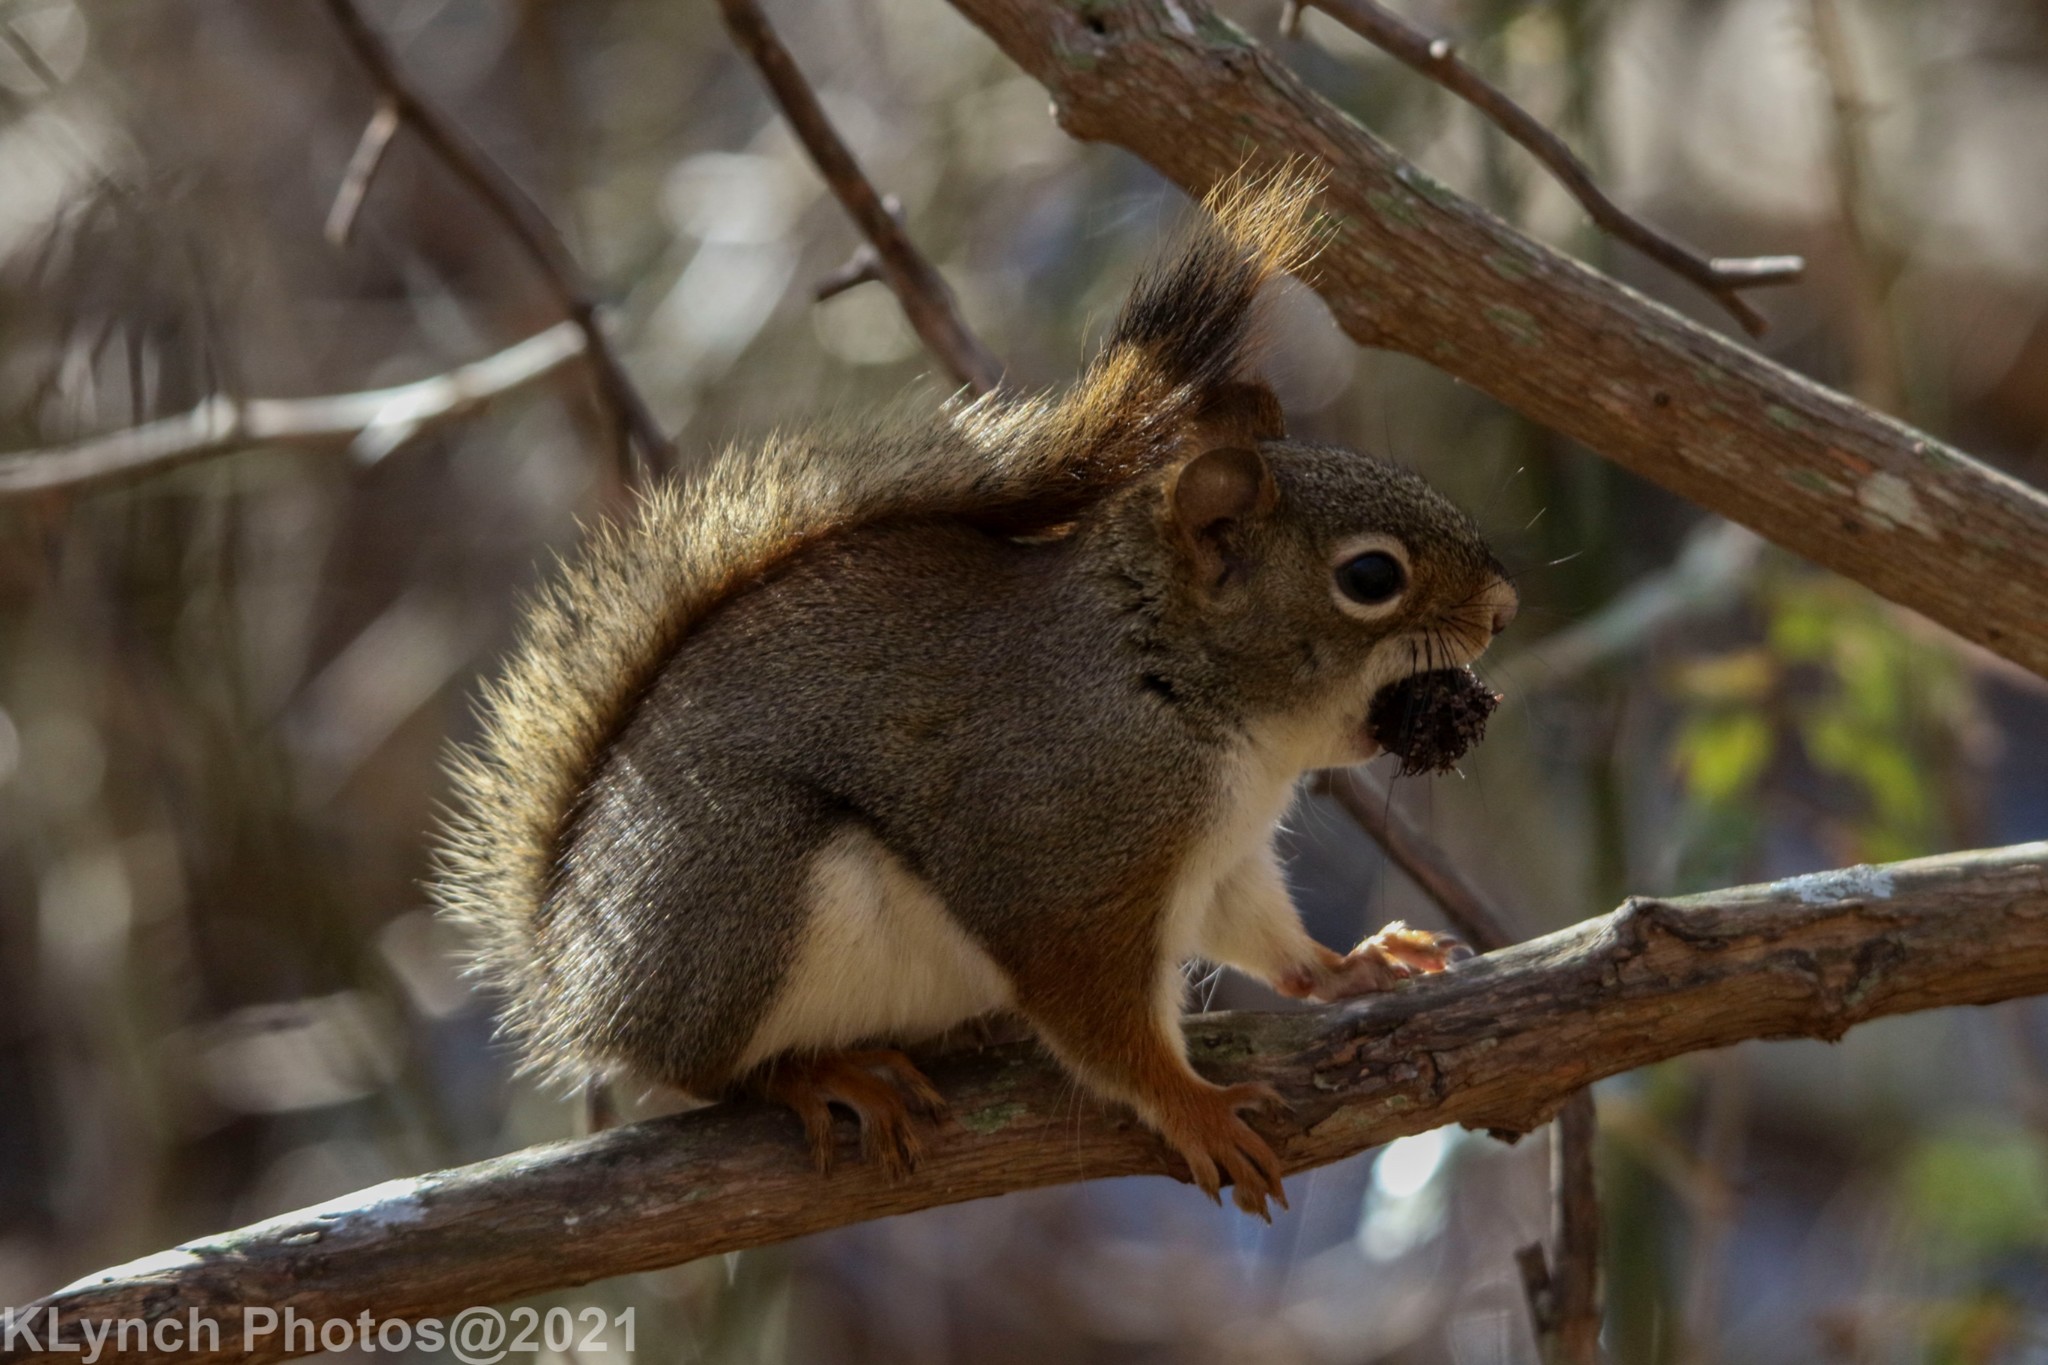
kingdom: Animalia
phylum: Chordata
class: Mammalia
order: Rodentia
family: Sciuridae
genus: Tamiasciurus
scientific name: Tamiasciurus hudsonicus
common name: Red squirrel
